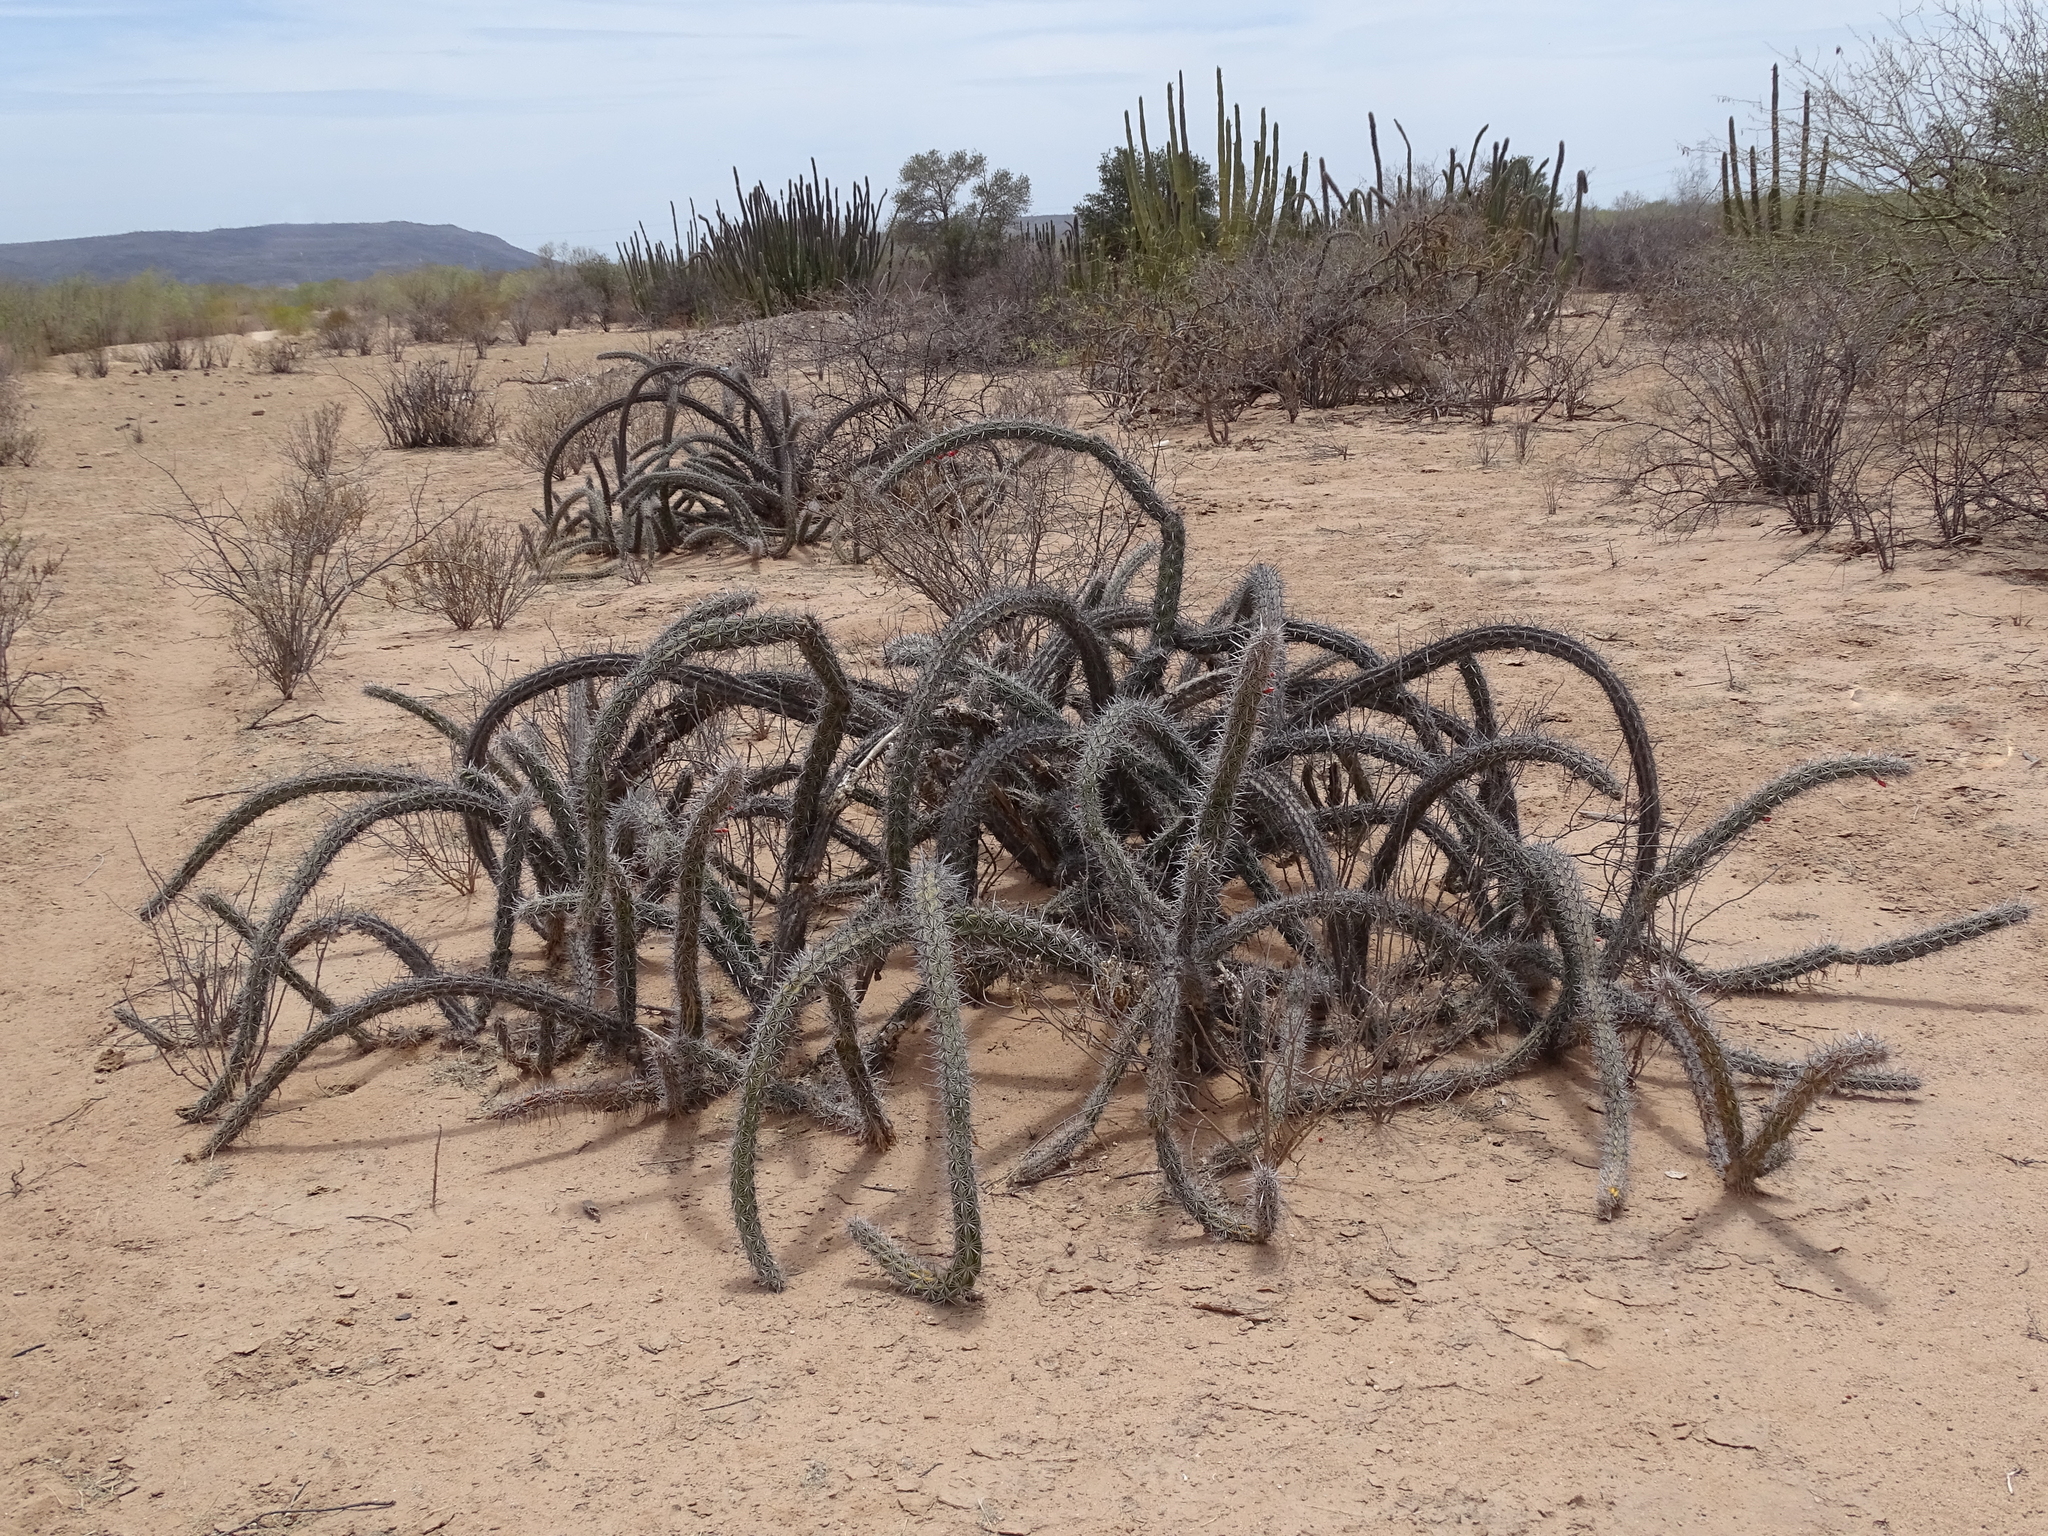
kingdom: Plantae
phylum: Tracheophyta
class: Magnoliopsida
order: Caryophyllales
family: Cactaceae
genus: Stenocereus
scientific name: Stenocereus alamosensis
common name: Octopus cactus
